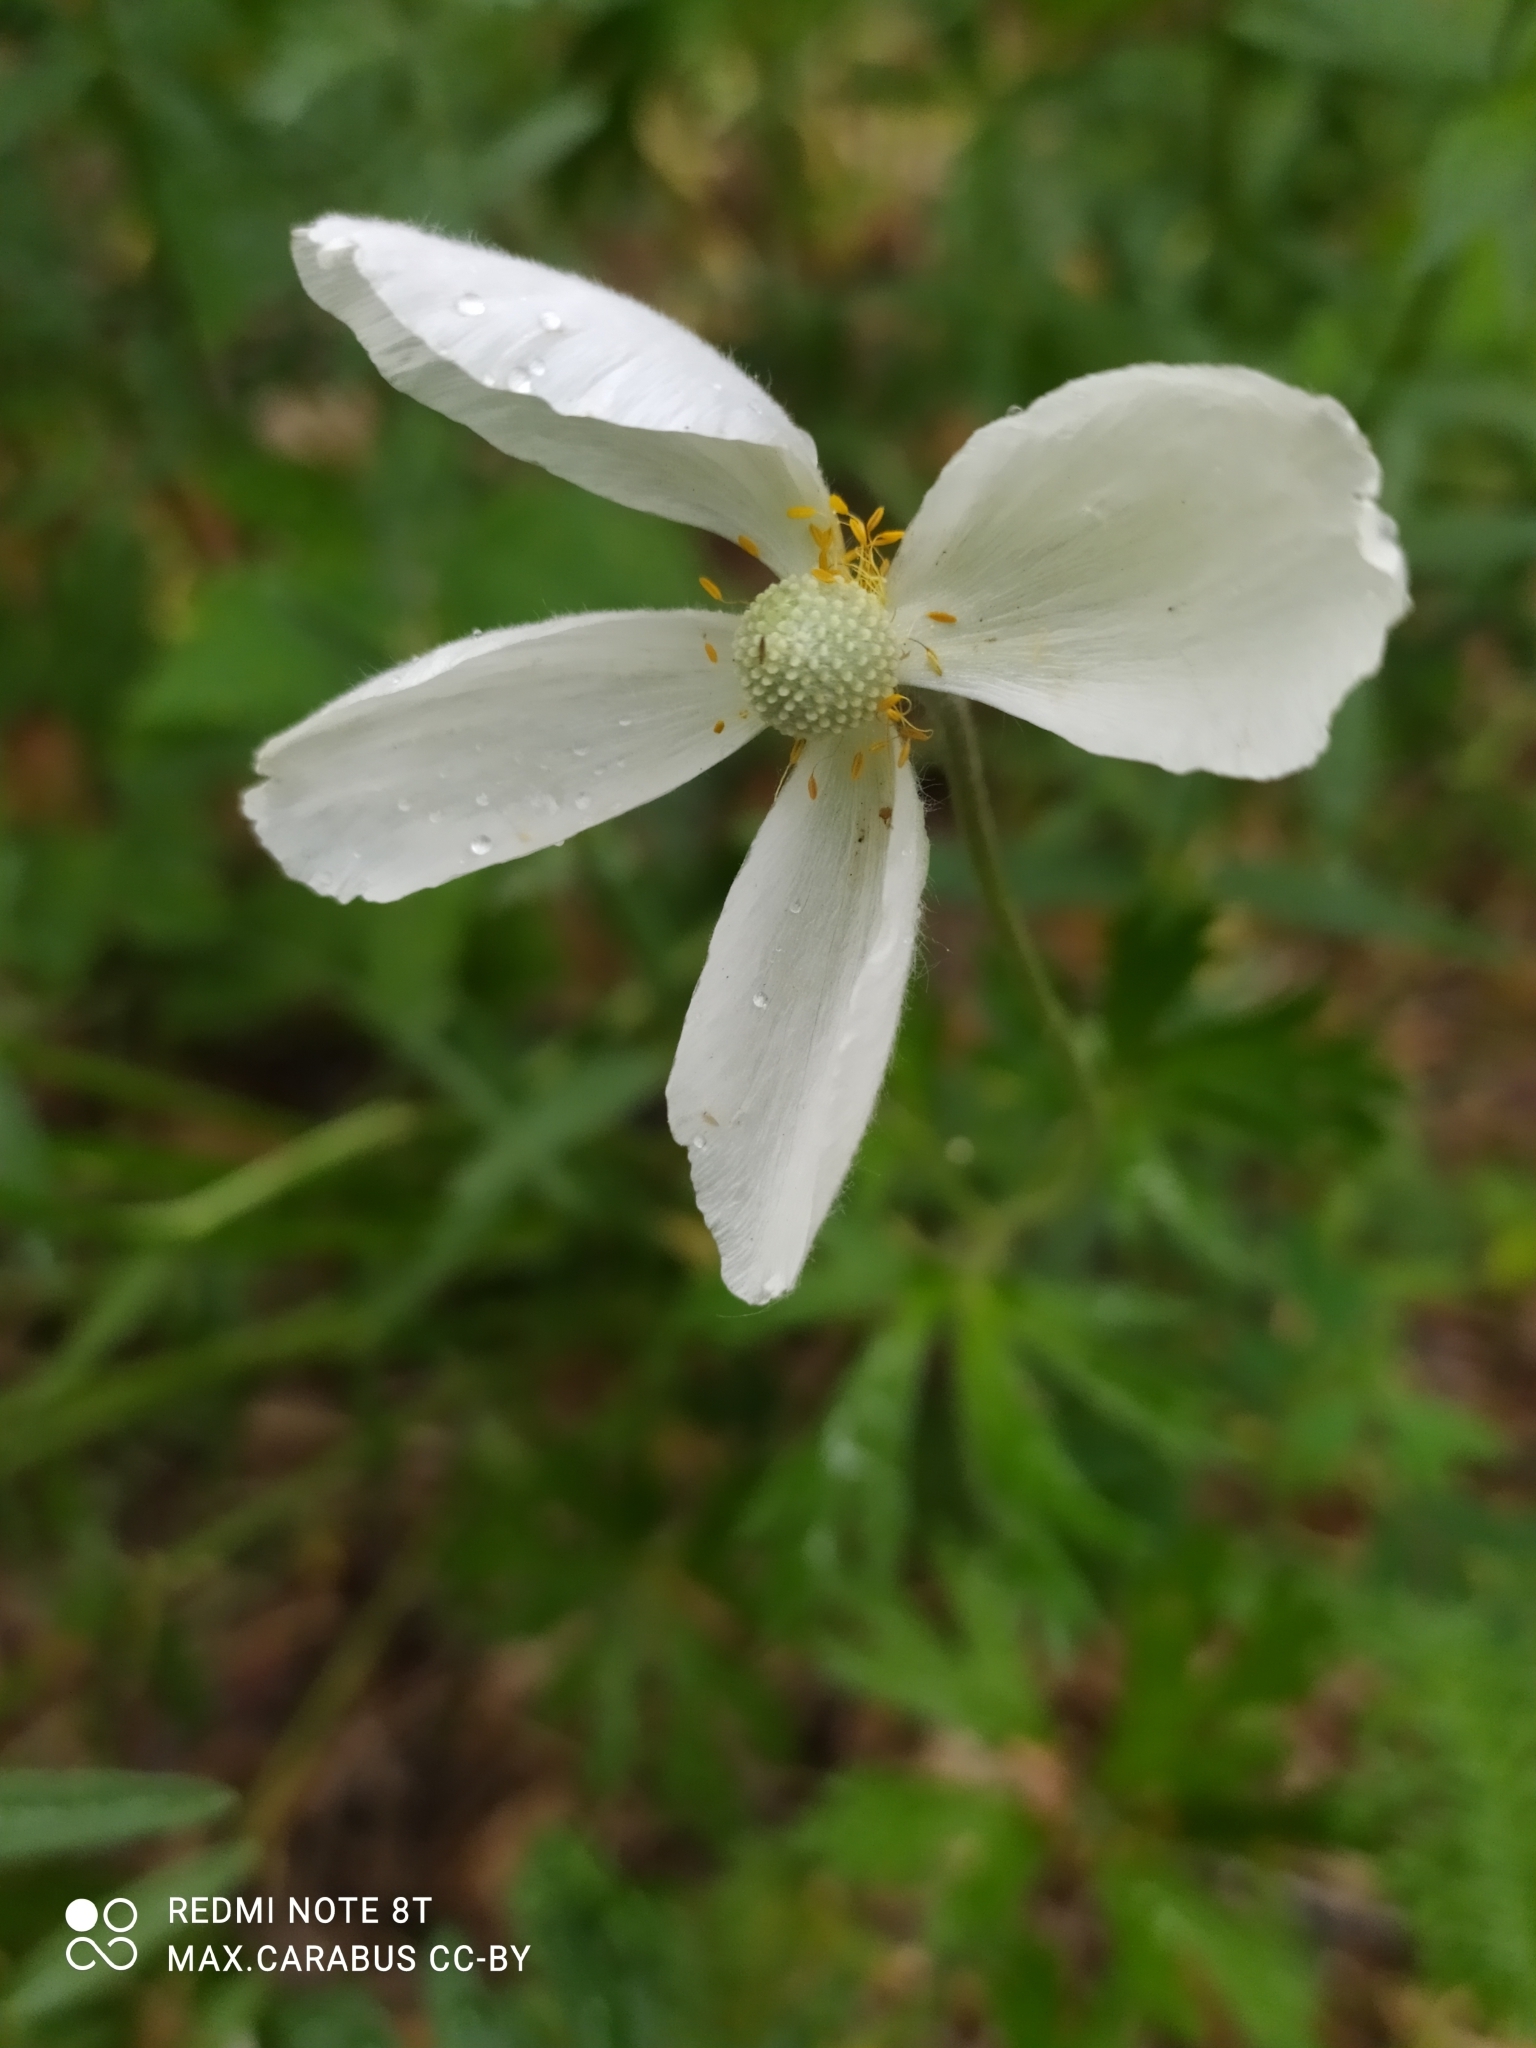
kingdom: Plantae
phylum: Tracheophyta
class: Magnoliopsida
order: Ranunculales
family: Ranunculaceae
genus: Anemone
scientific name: Anemone sylvestris
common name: Snowdrop anemone
